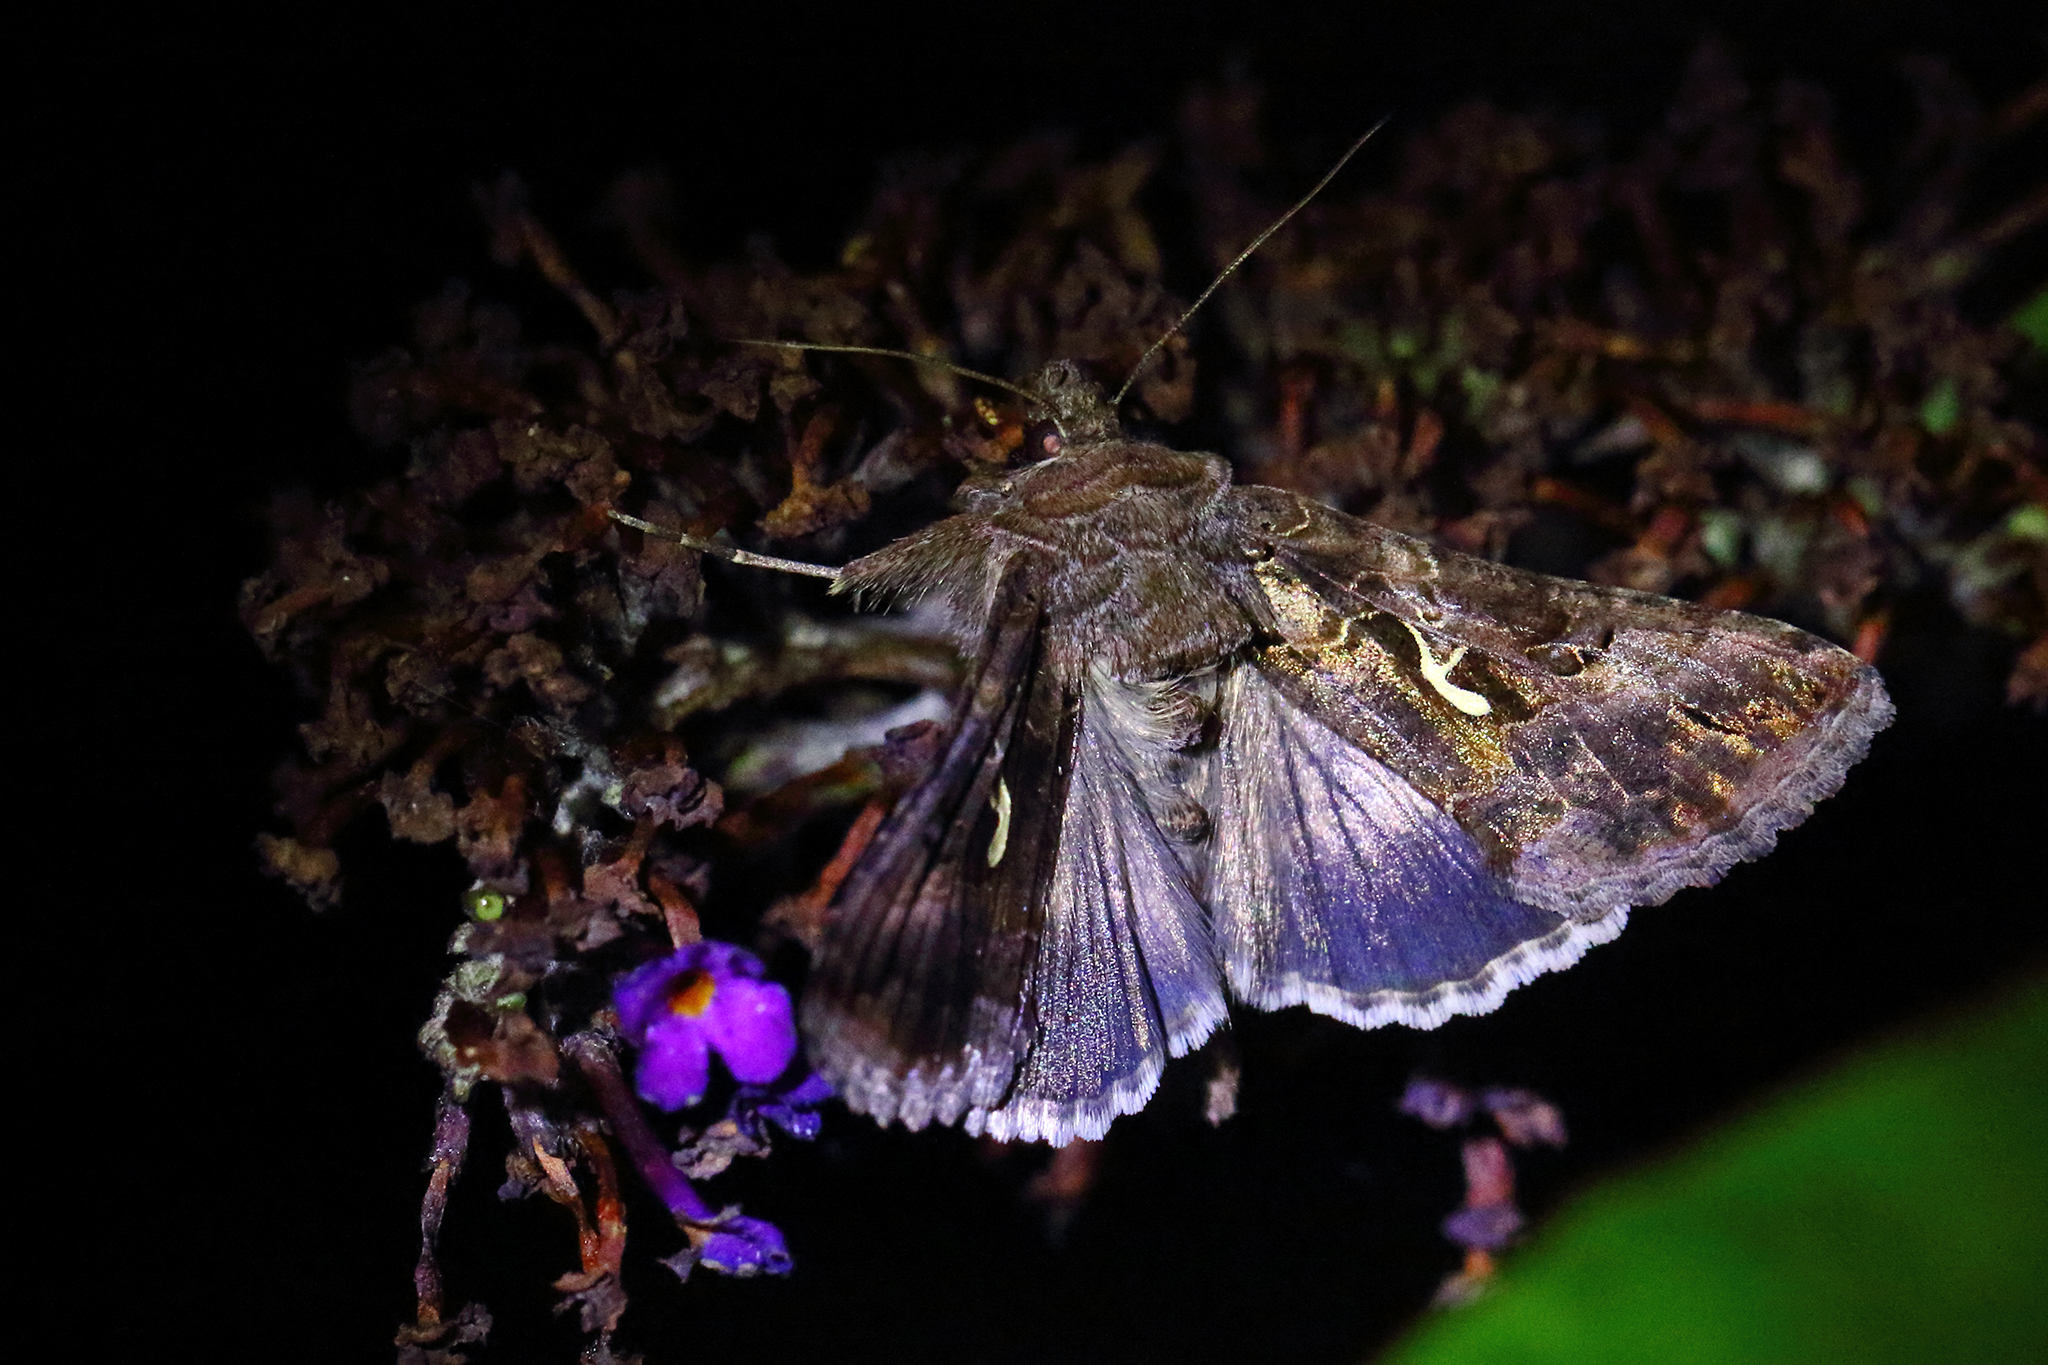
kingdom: Animalia
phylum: Arthropoda
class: Insecta
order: Lepidoptera
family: Noctuidae
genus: Autographa
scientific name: Autographa gamma
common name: Silver y
